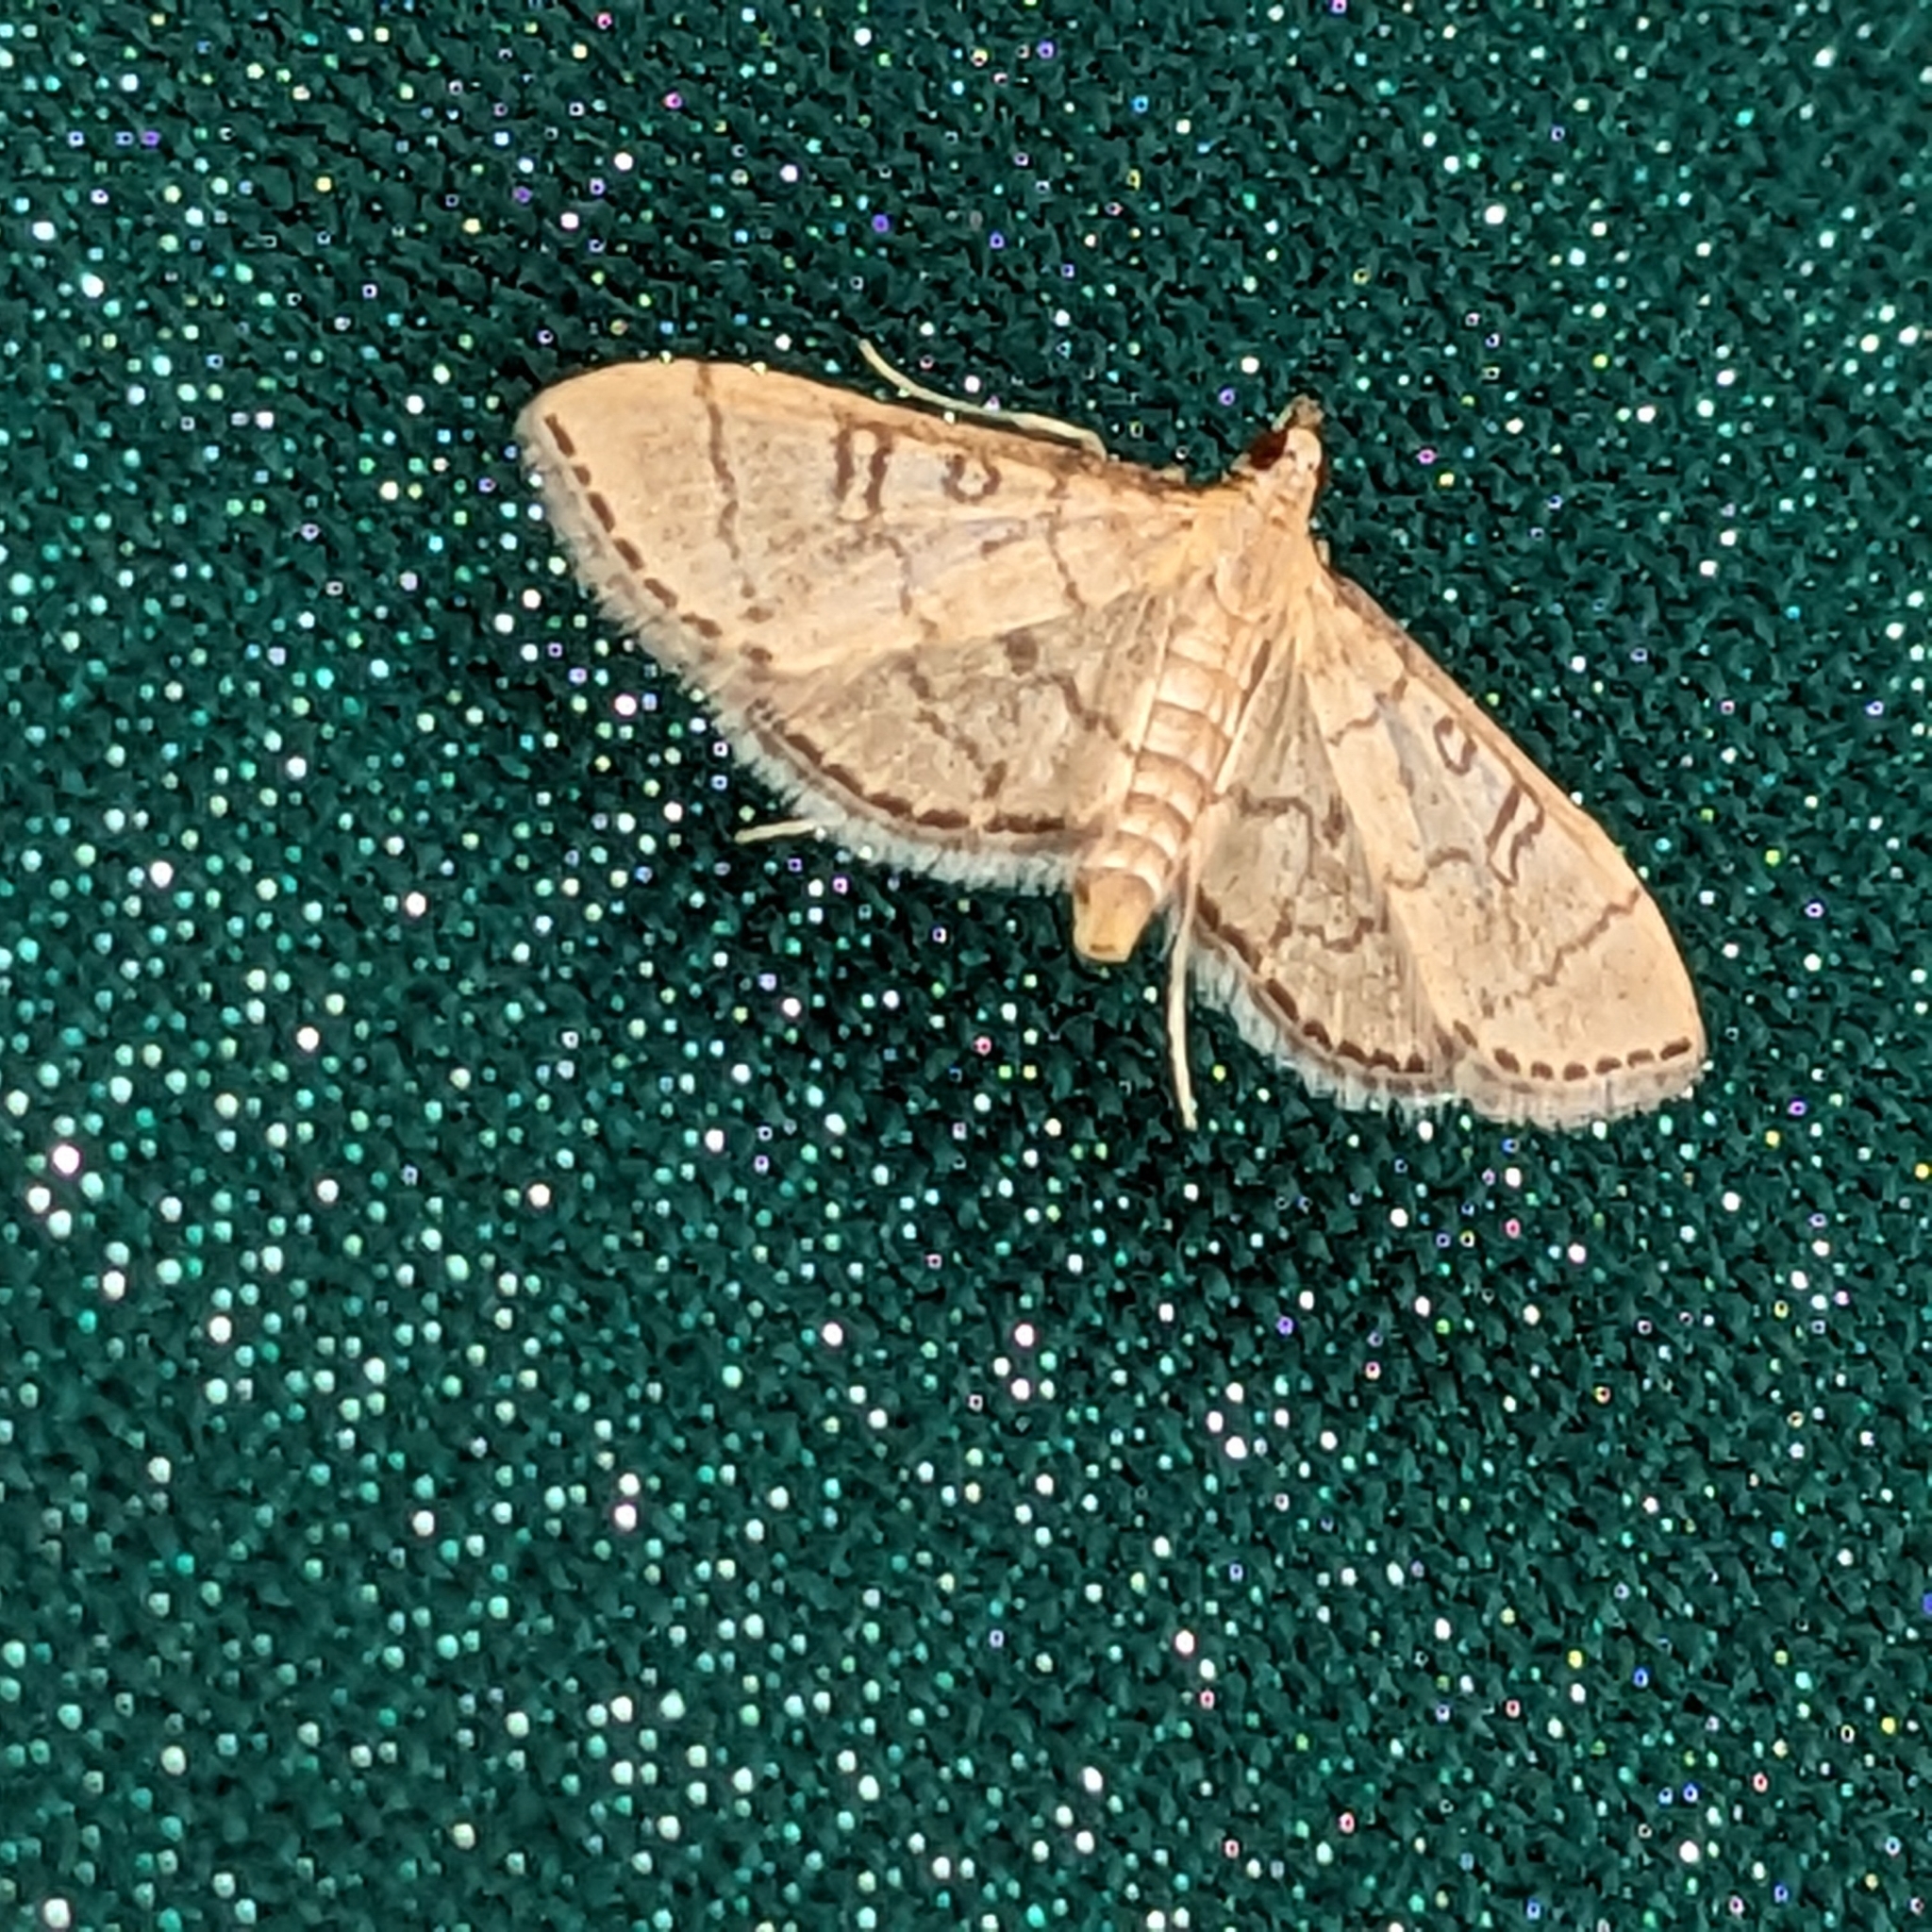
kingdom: Animalia
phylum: Arthropoda
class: Insecta
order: Lepidoptera
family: Crambidae
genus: Lamprosema
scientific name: Lamprosema Blepharomastix ranalis
